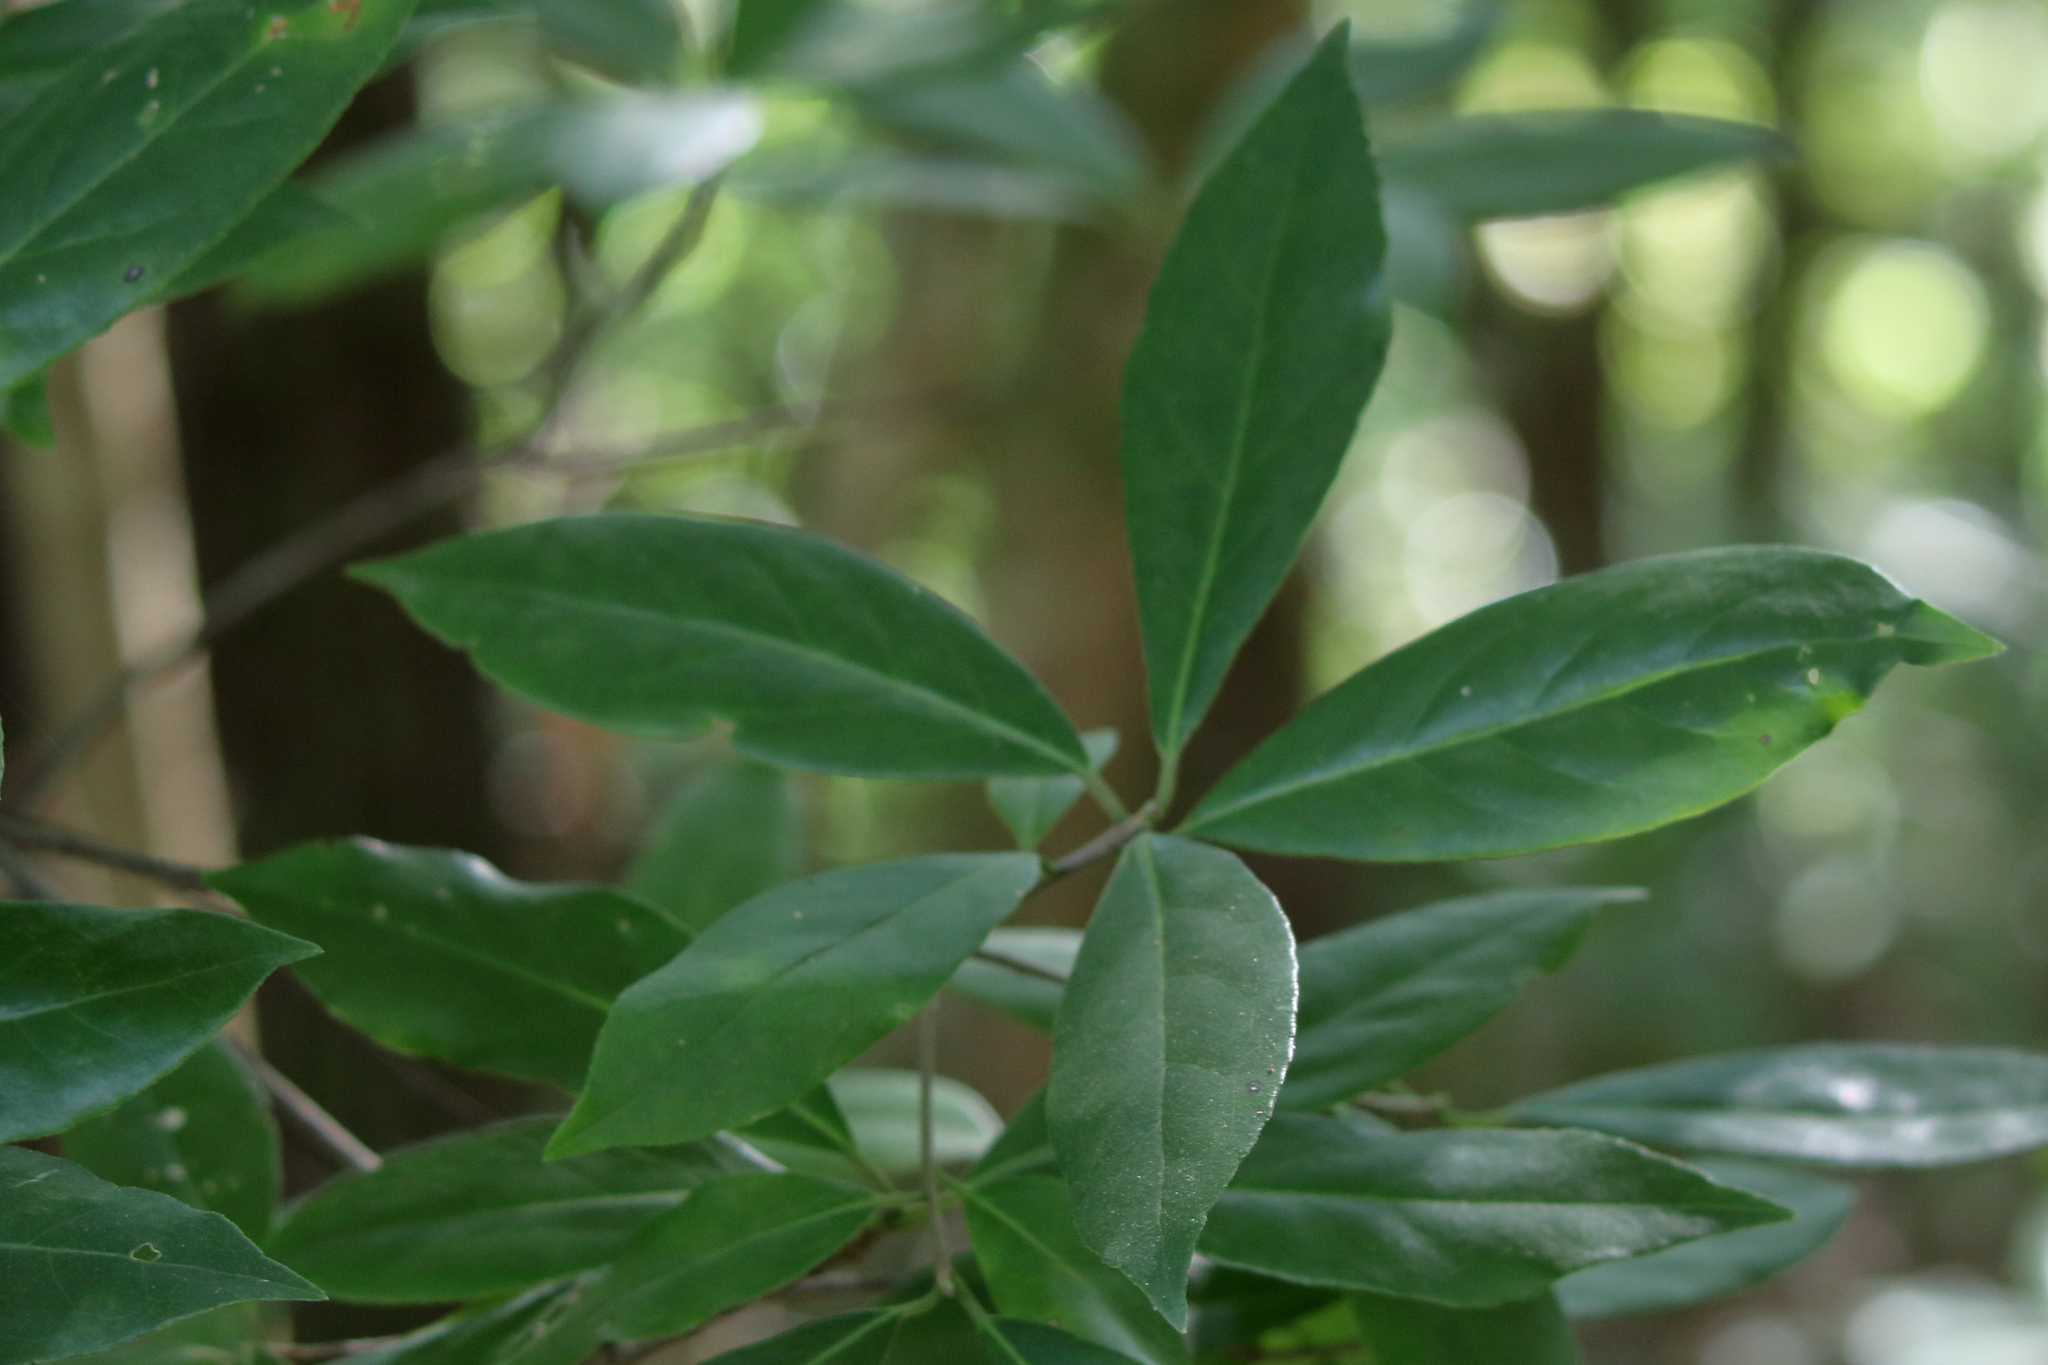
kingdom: Plantae
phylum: Tracheophyta
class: Magnoliopsida
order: Ericales
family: Symplocaceae
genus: Symplocos
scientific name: Symplocos tinctoria
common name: Horse-sugar
